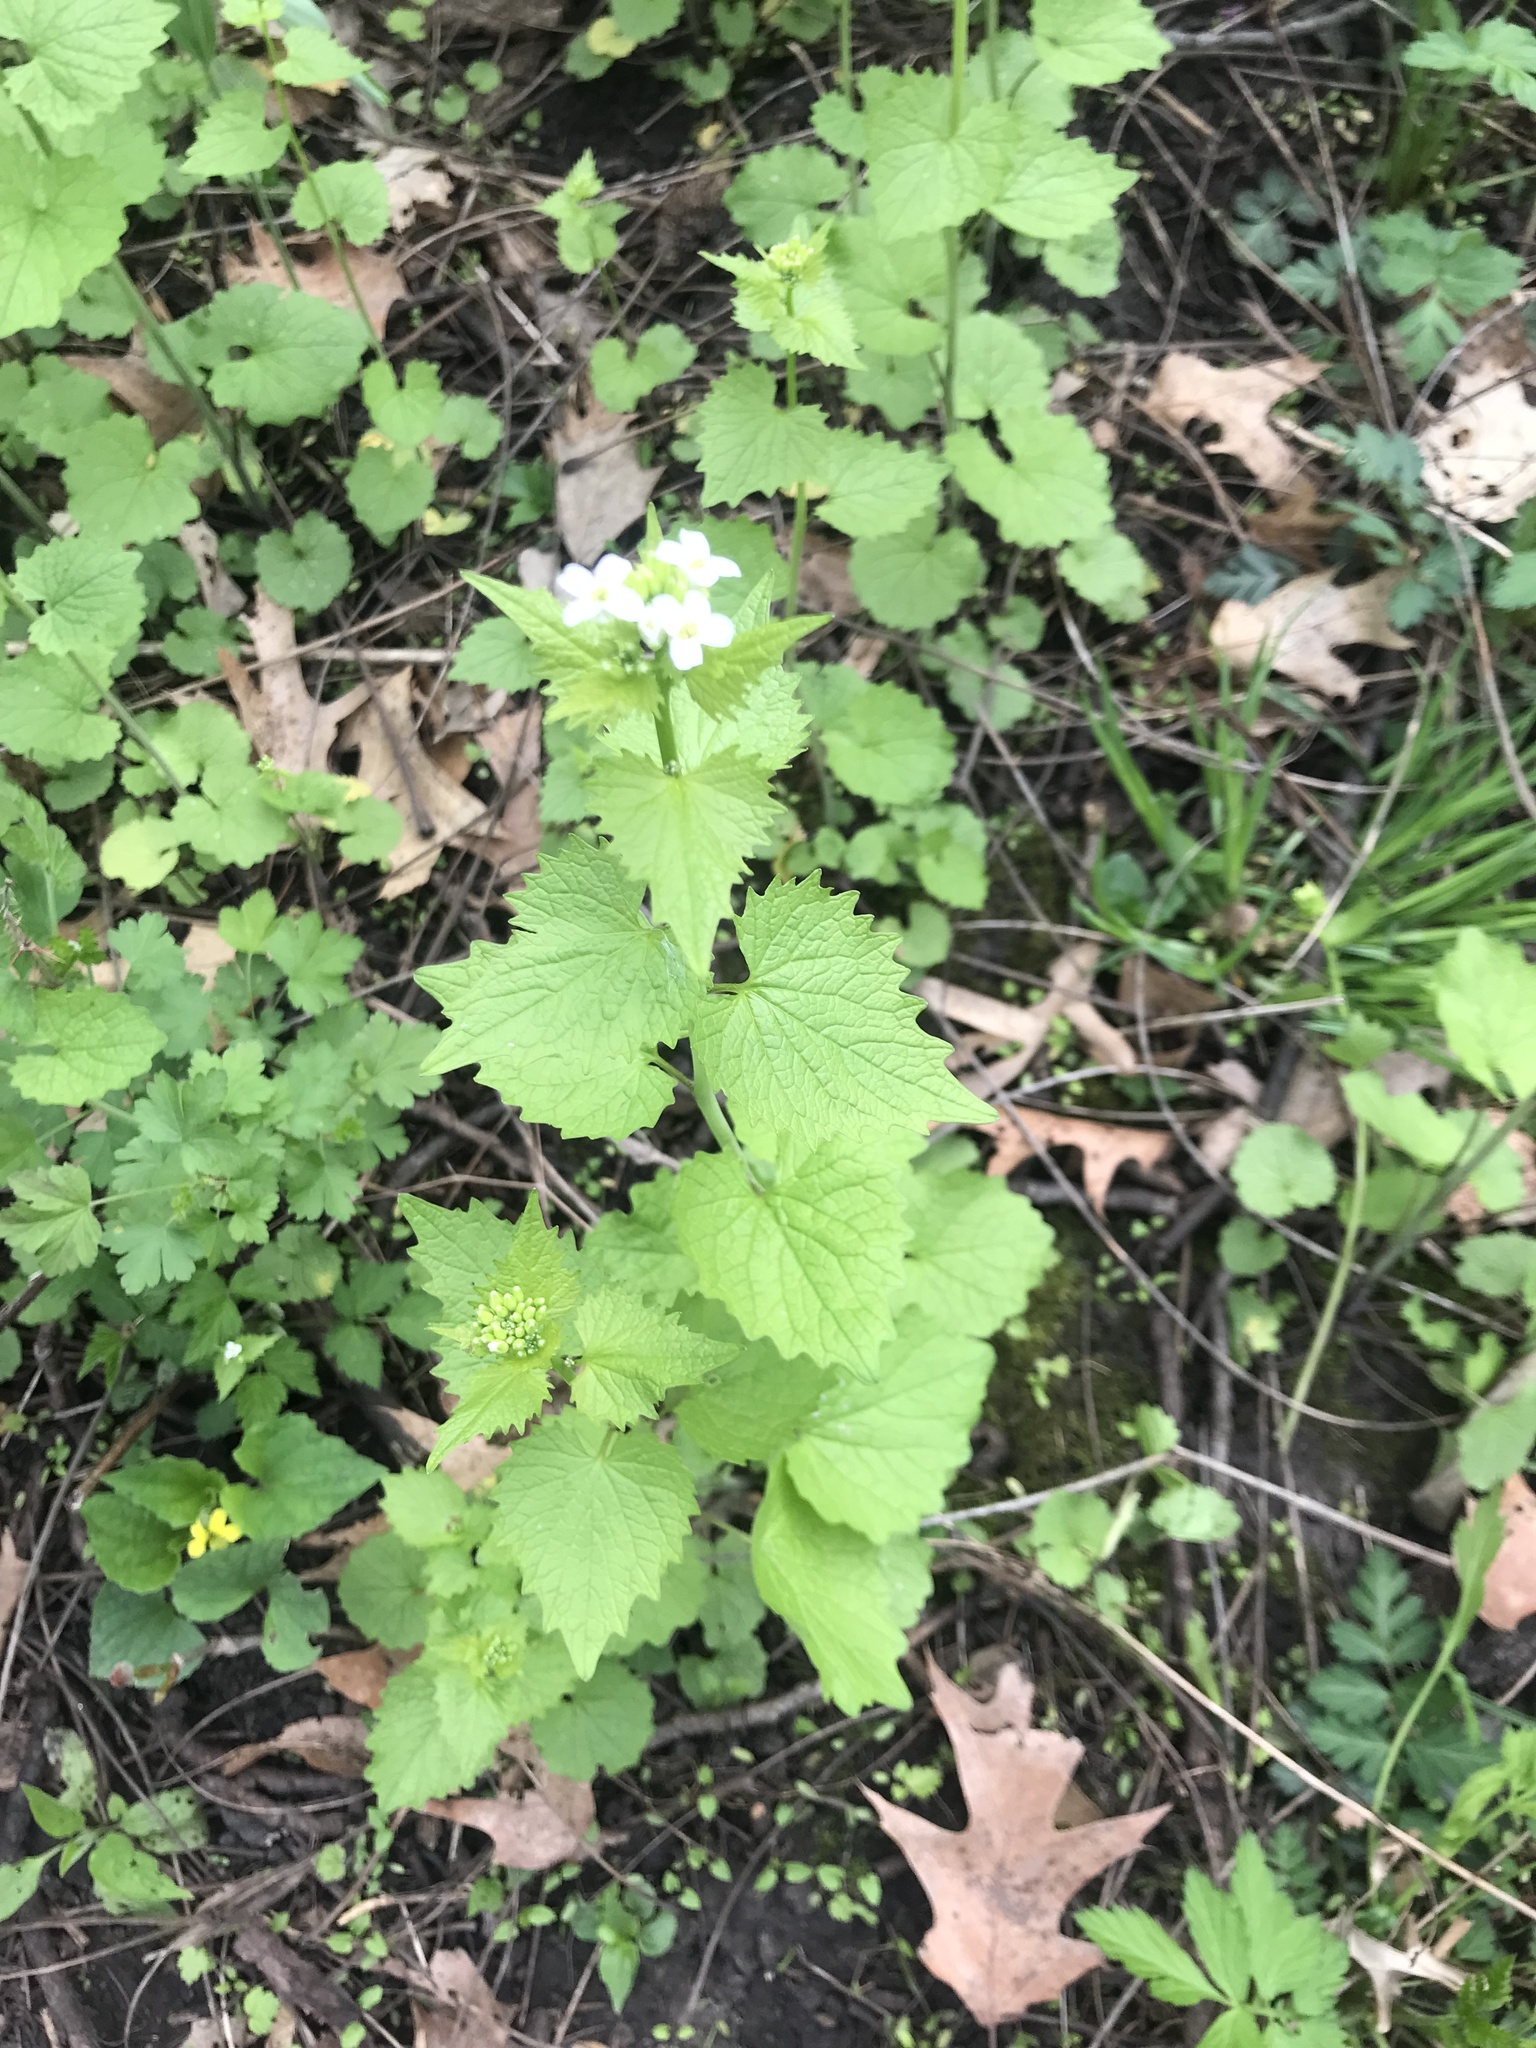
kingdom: Plantae
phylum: Tracheophyta
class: Magnoliopsida
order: Brassicales
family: Brassicaceae
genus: Alliaria
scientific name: Alliaria petiolata
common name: Garlic mustard
